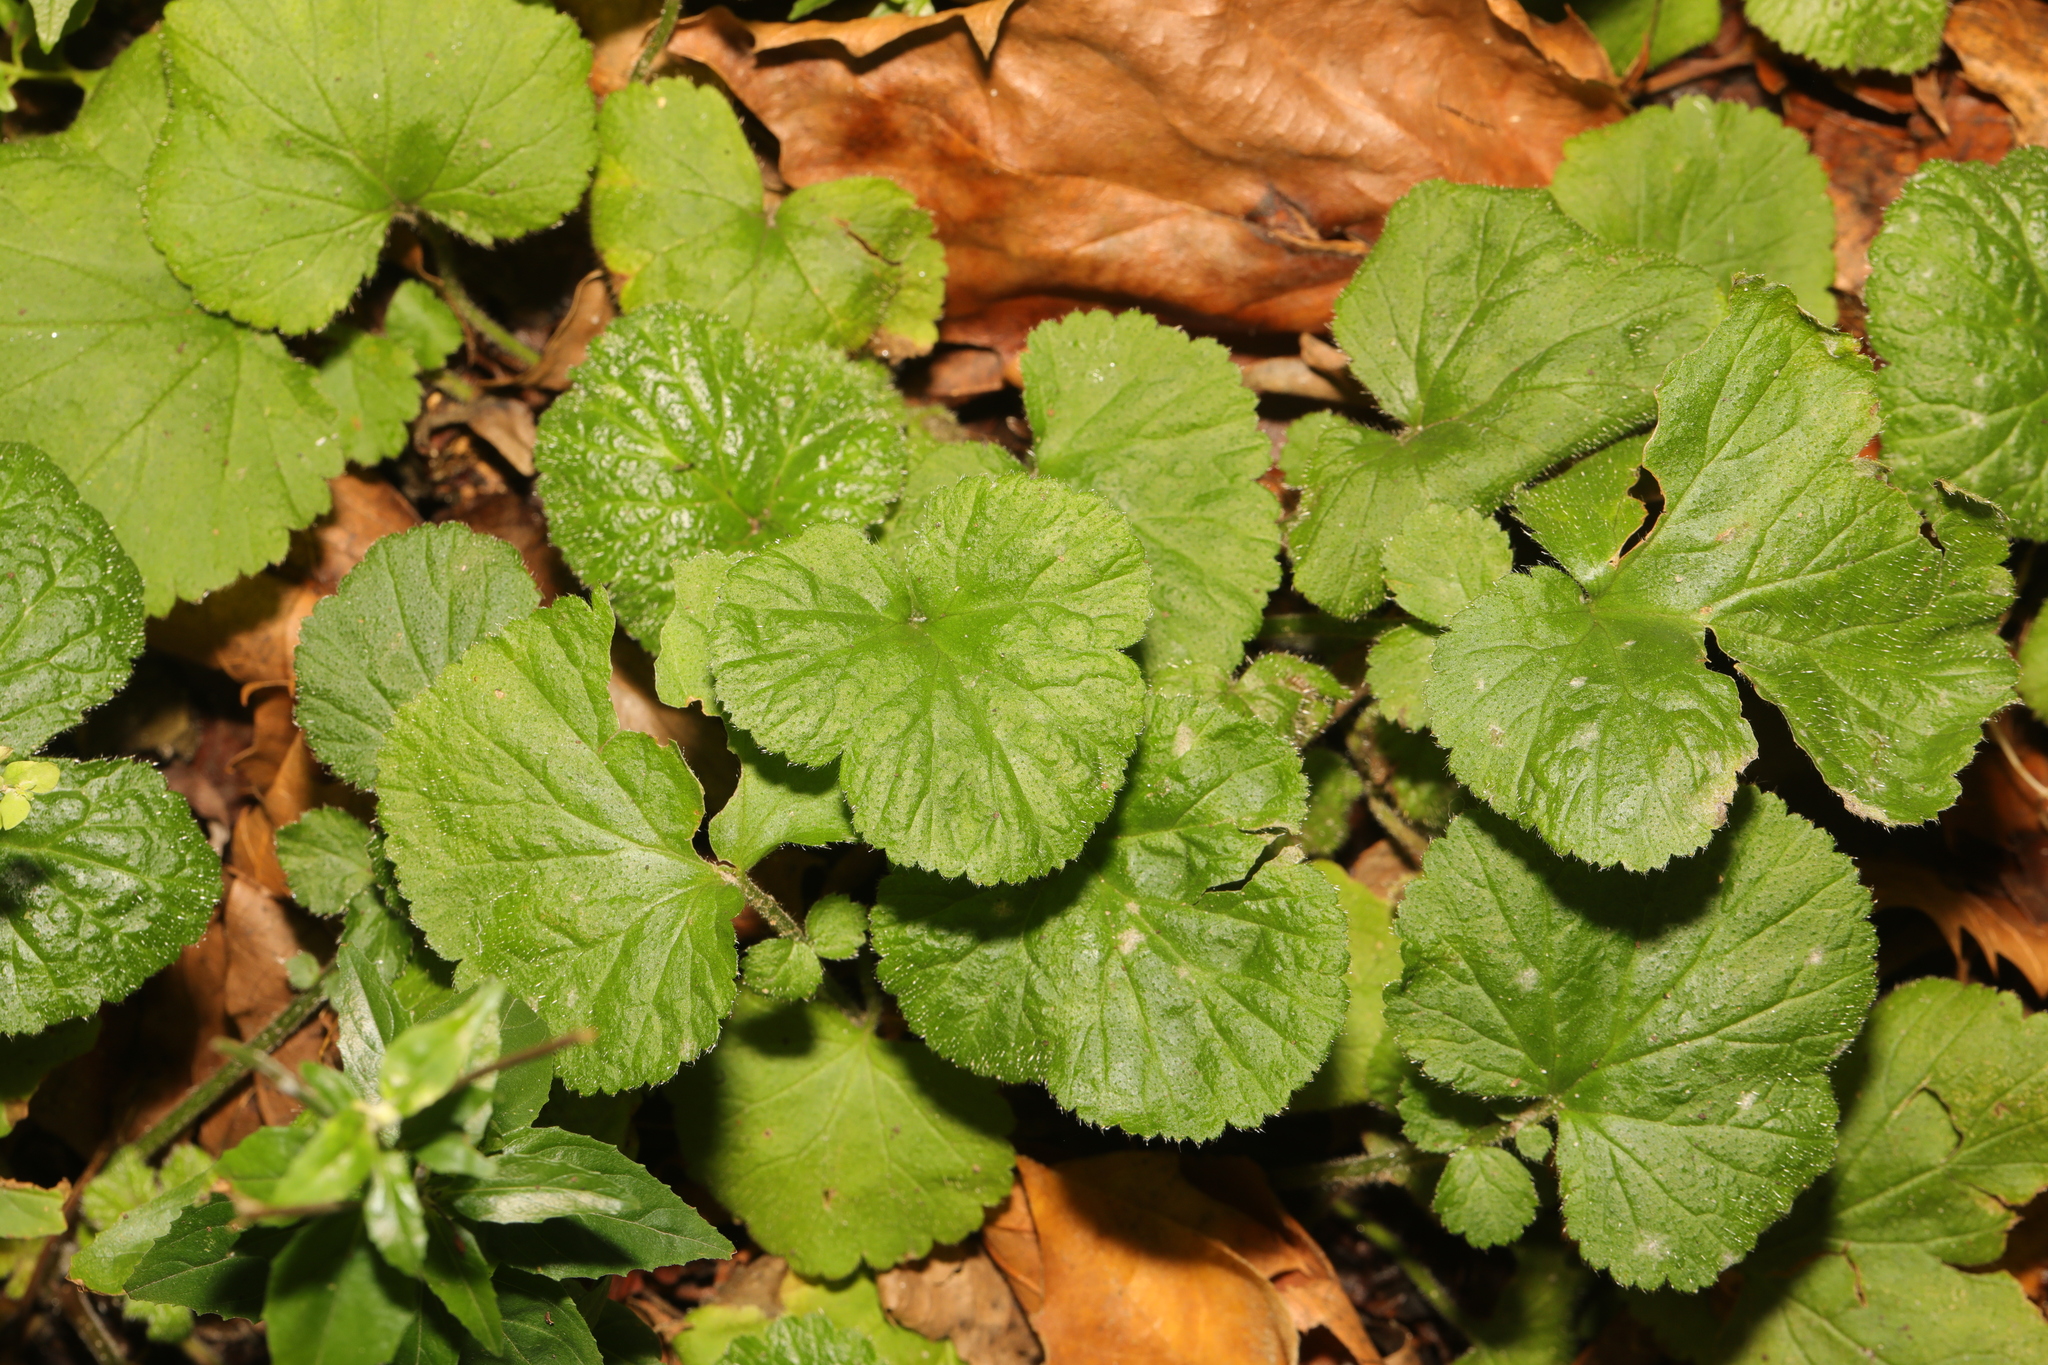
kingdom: Plantae
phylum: Tracheophyta
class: Magnoliopsida
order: Rosales
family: Rosaceae
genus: Geum
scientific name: Geum urbanum
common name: Wood avens
